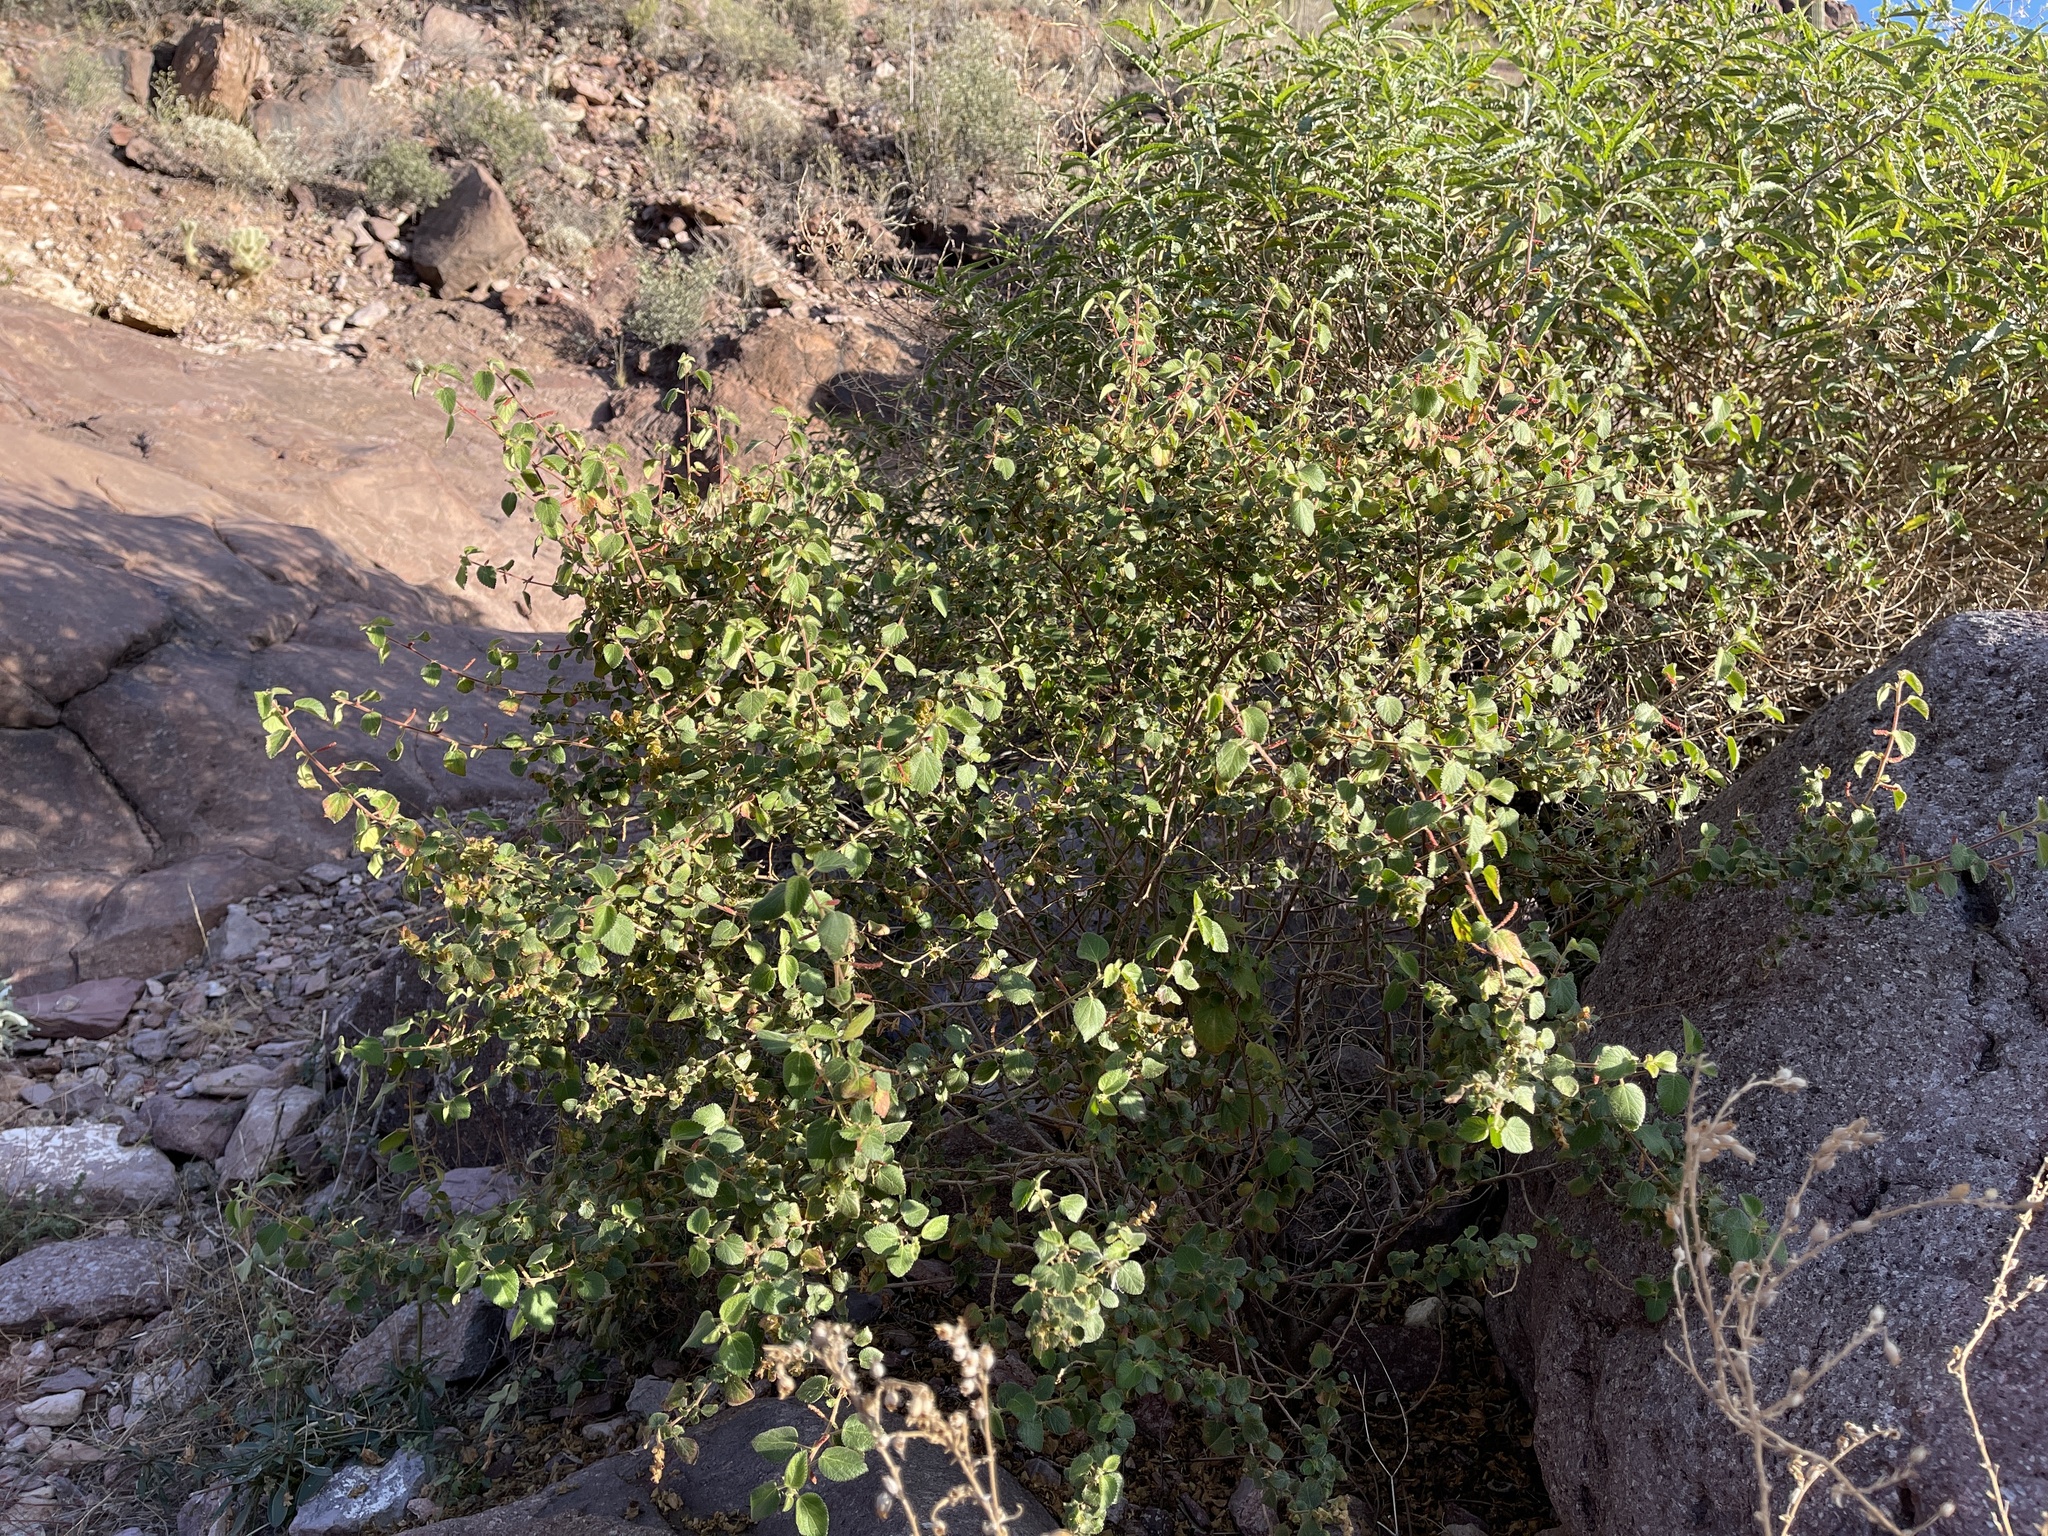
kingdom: Plantae
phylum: Tracheophyta
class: Magnoliopsida
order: Malpighiales
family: Euphorbiaceae
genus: Acalypha
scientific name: Acalypha californica
